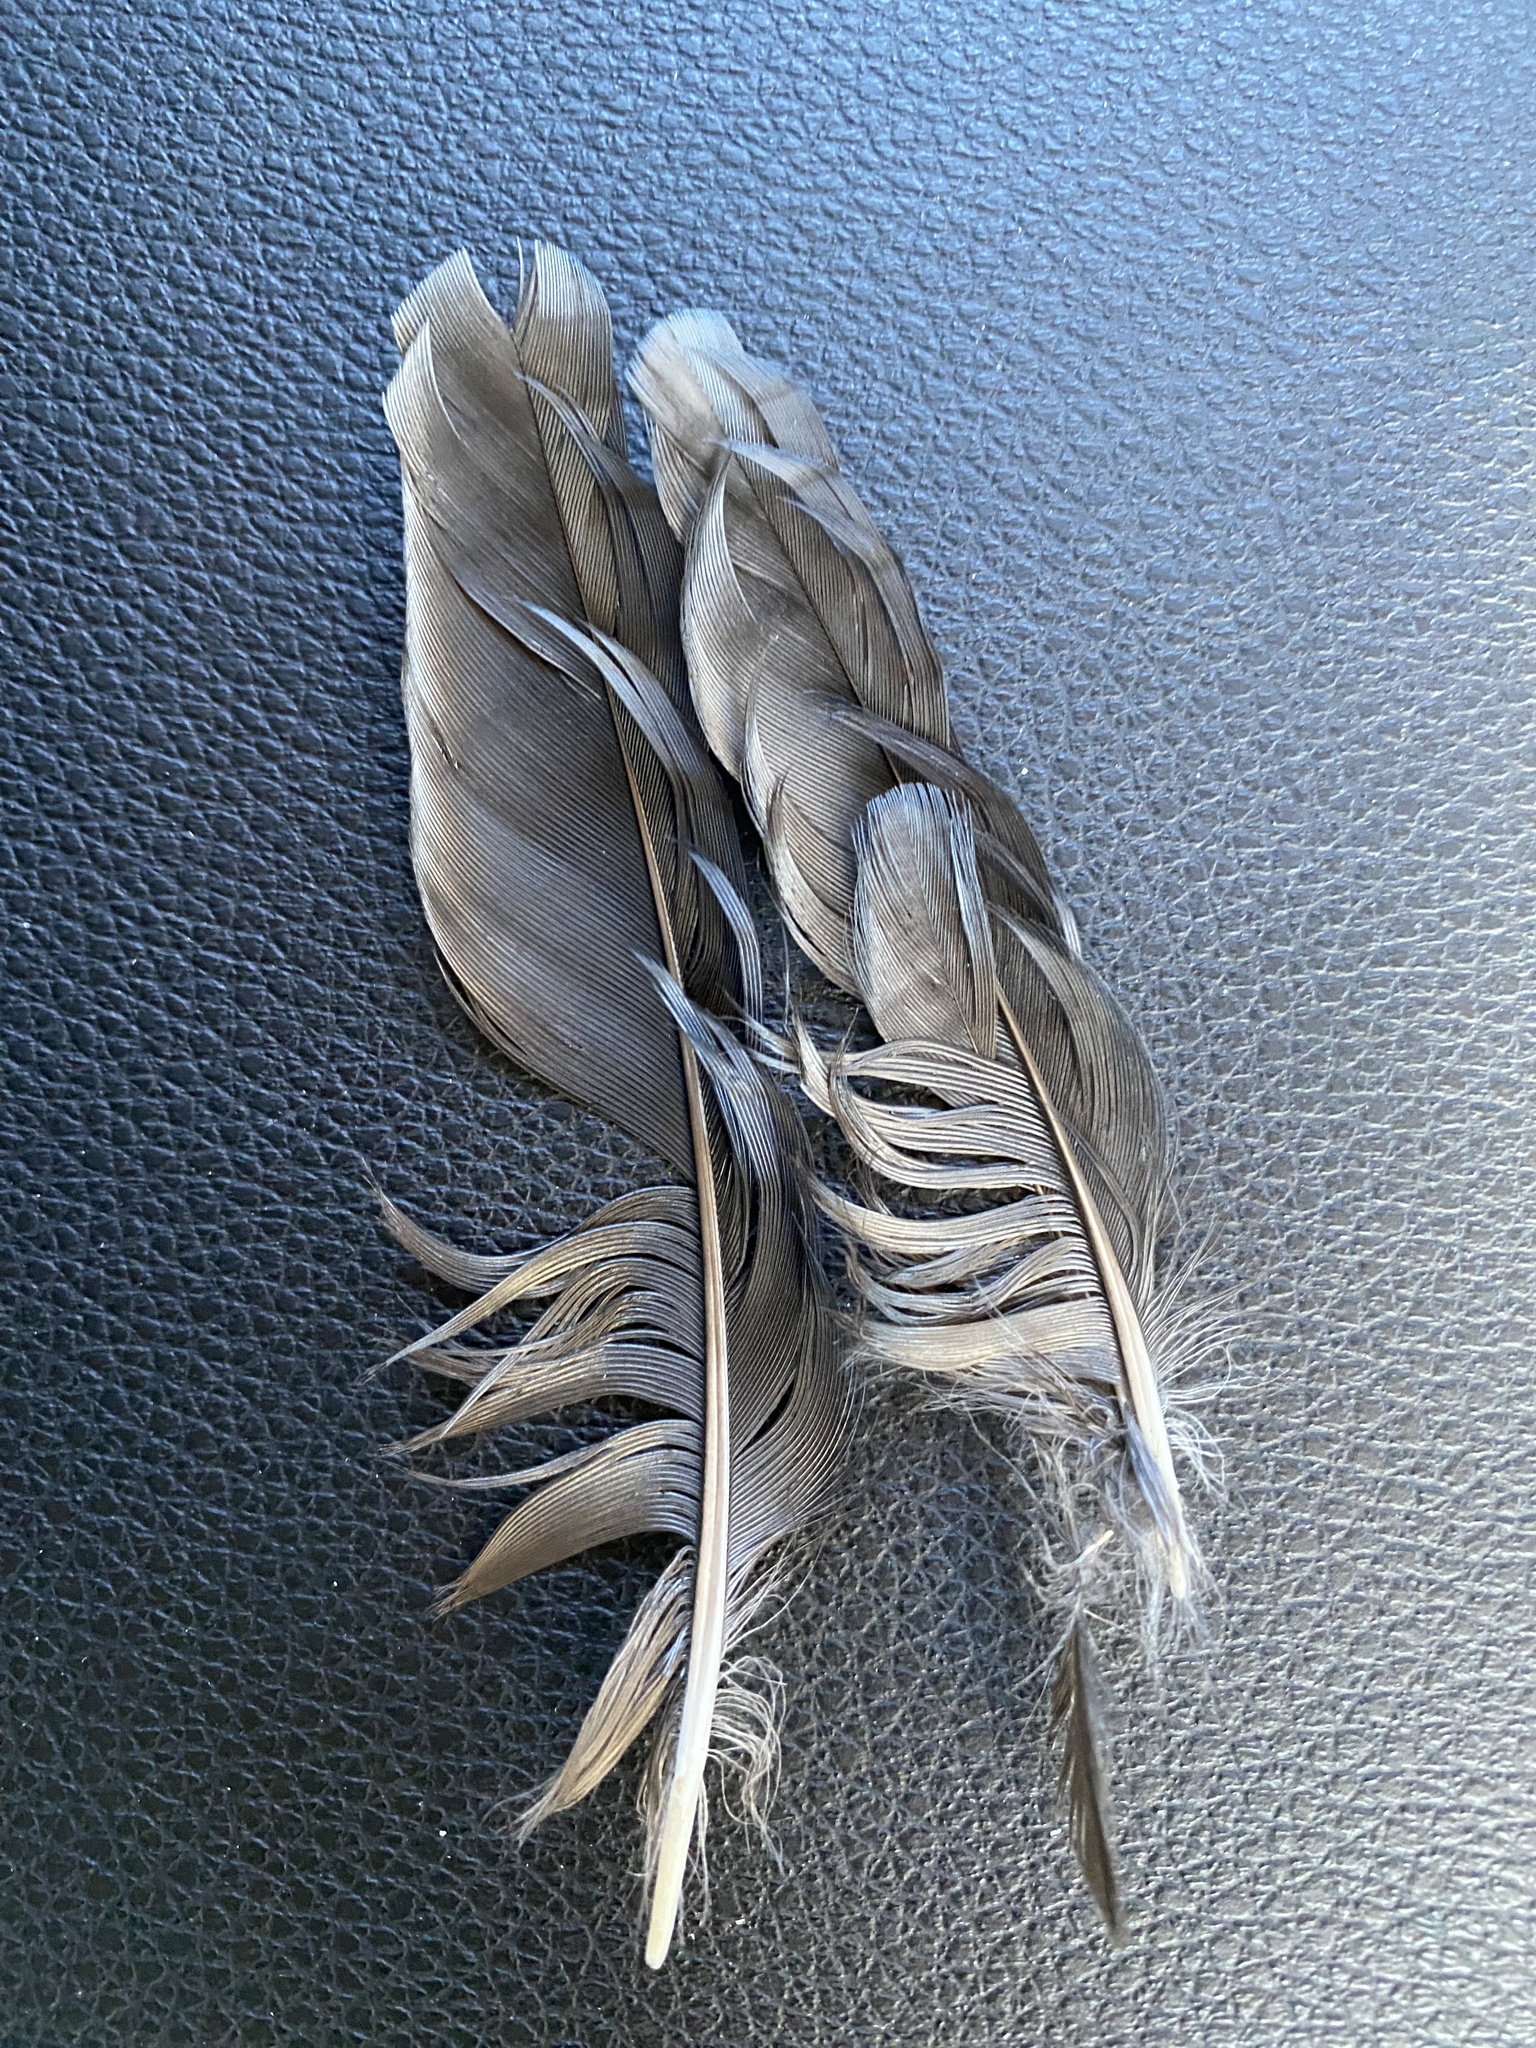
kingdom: Animalia
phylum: Chordata
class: Aves
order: Passeriformes
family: Corvidae
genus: Cyanocitta
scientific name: Cyanocitta stelleri
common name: Steller's jay
